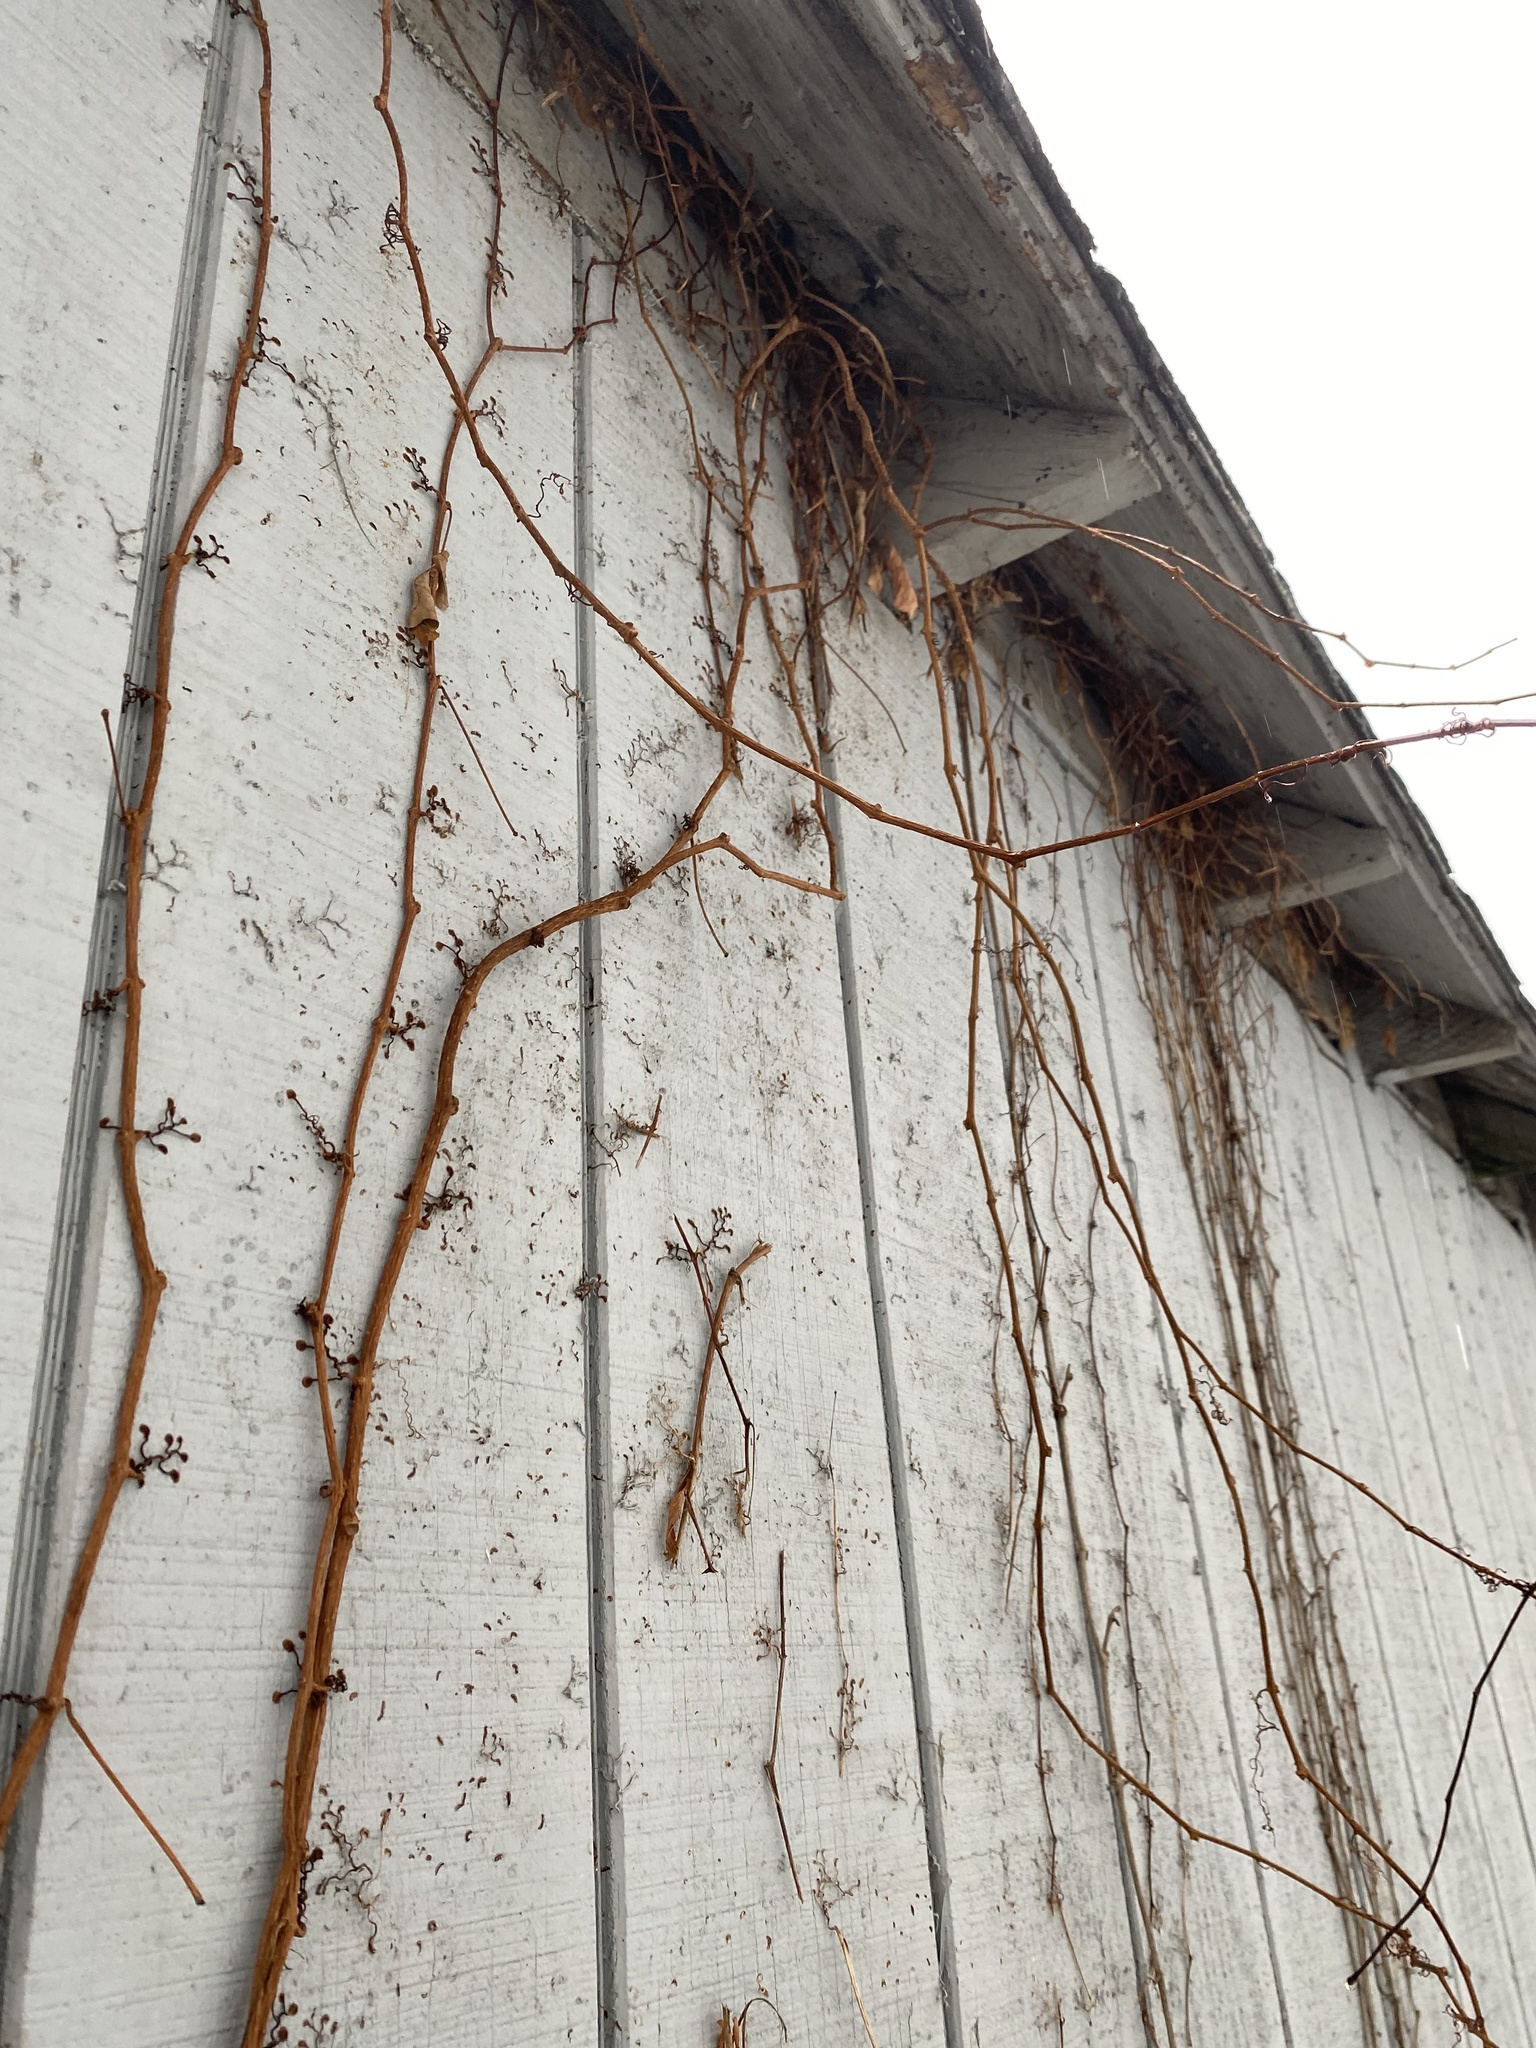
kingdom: Plantae
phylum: Tracheophyta
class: Magnoliopsida
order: Vitales
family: Vitaceae
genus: Parthenocissus
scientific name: Parthenocissus quinquefolia
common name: Virginia-creeper
